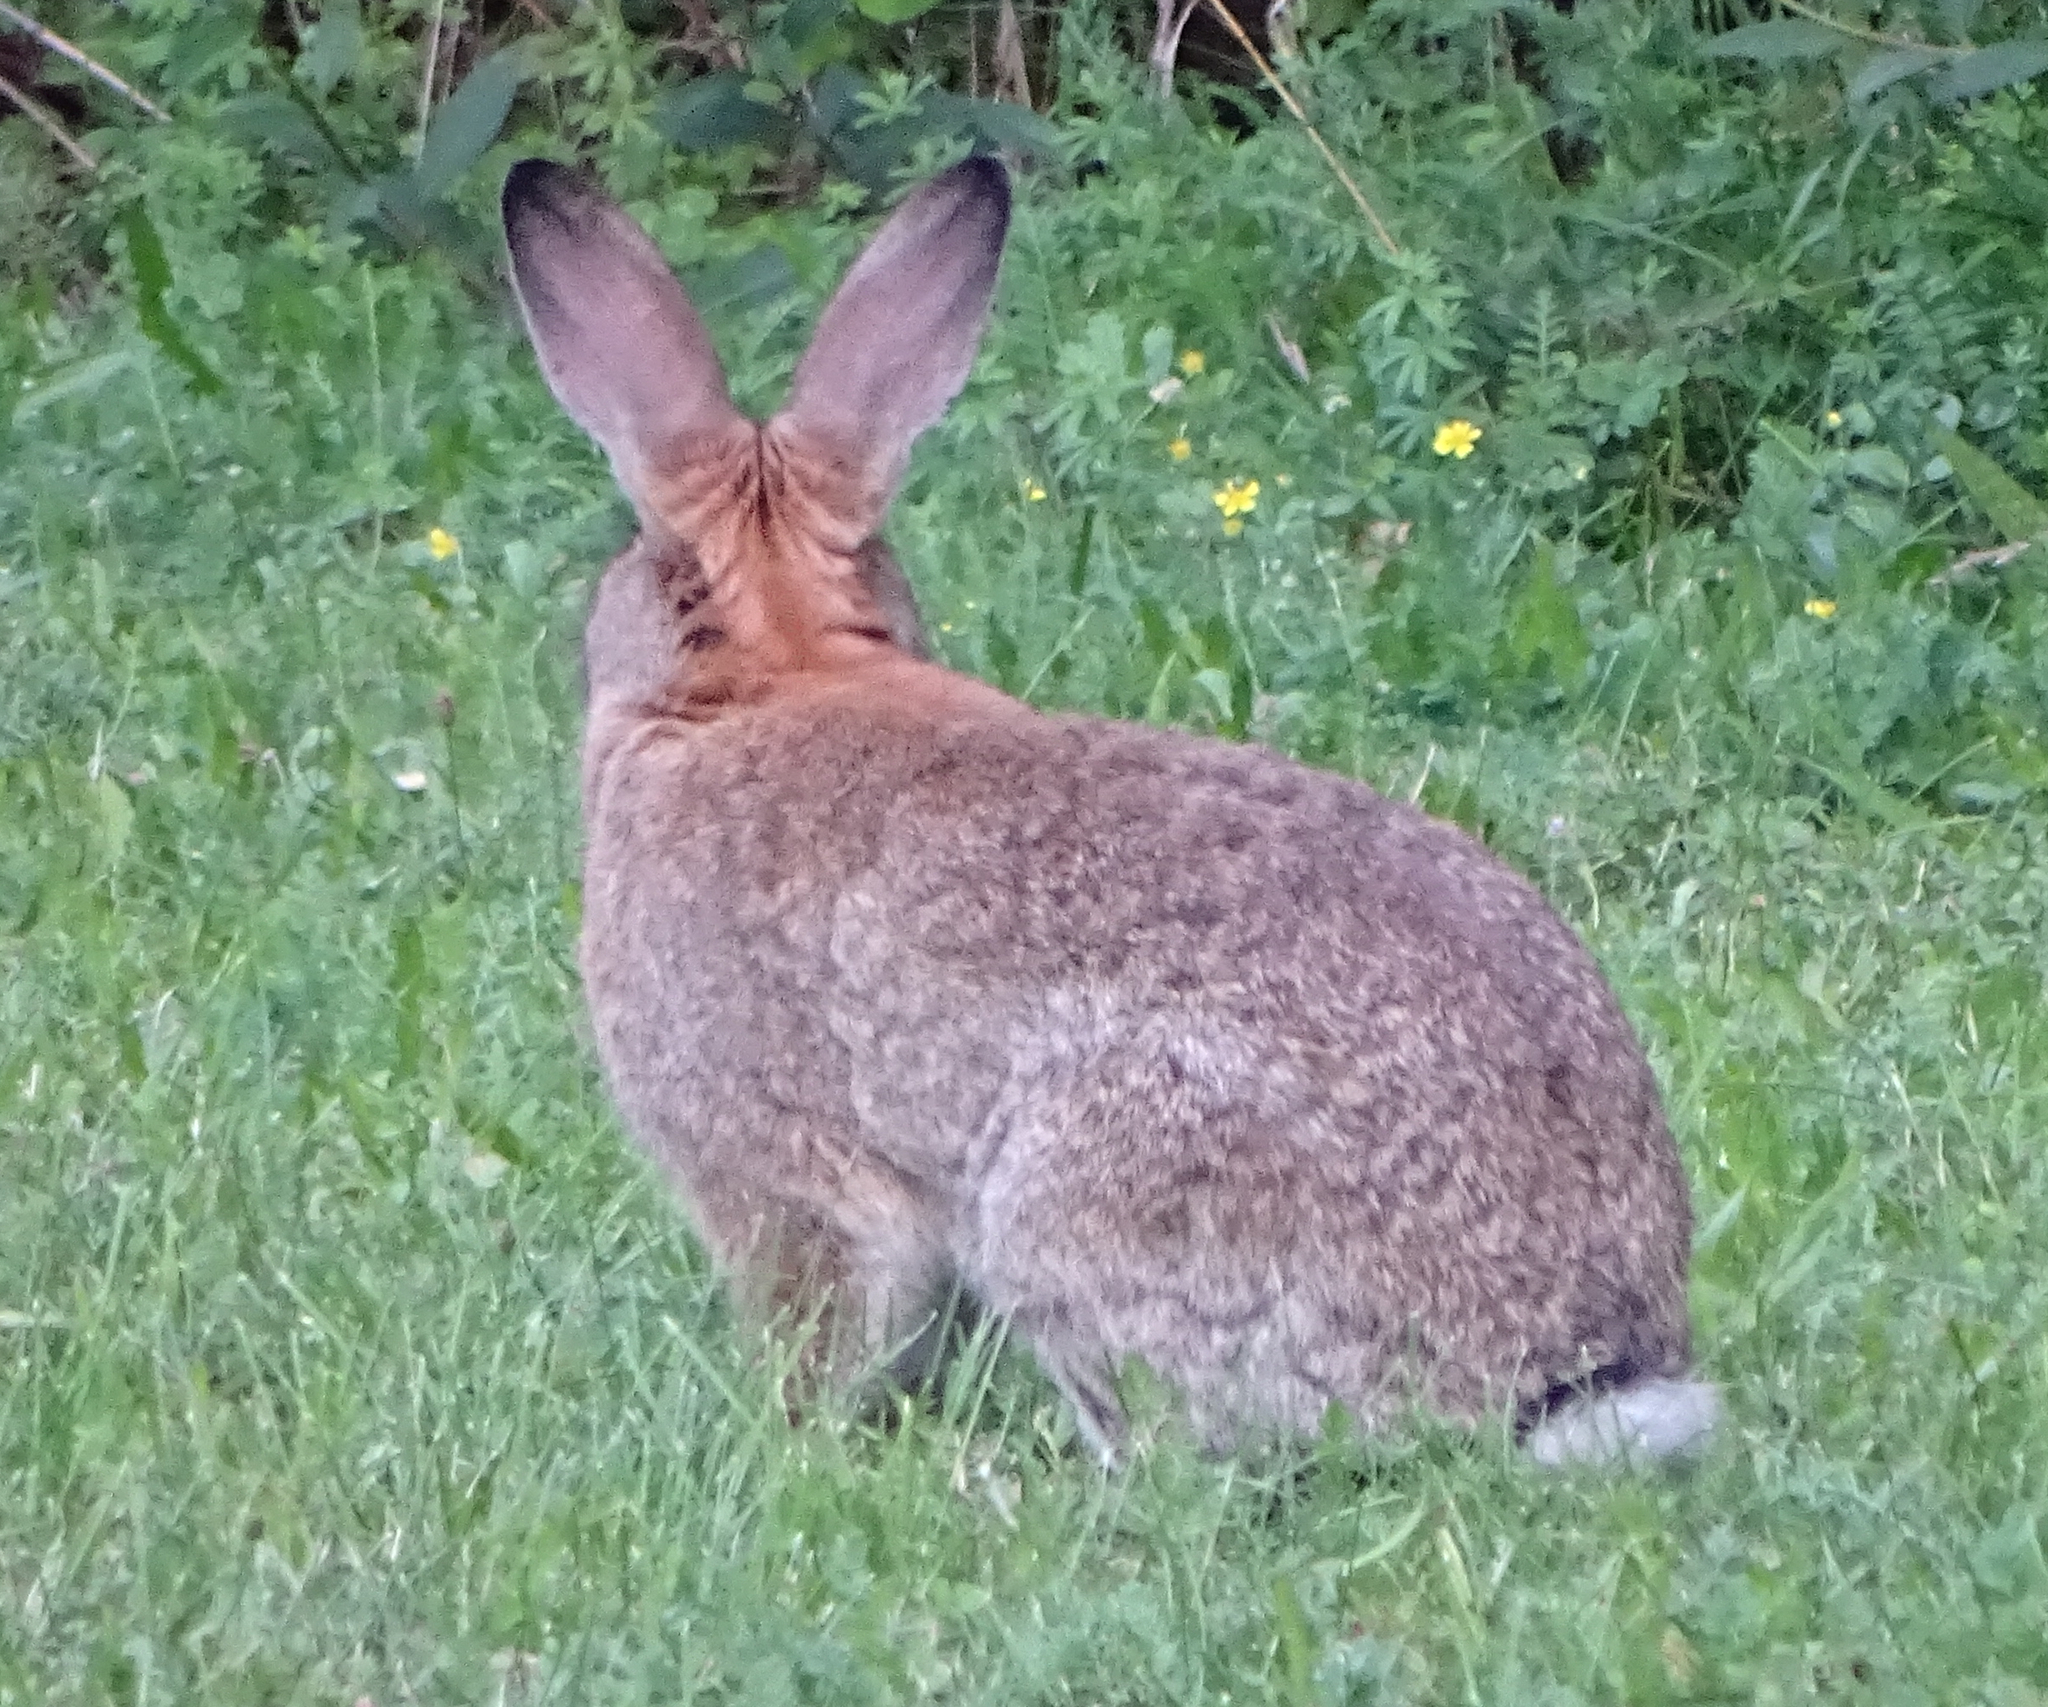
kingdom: Animalia
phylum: Chordata
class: Mammalia
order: Lagomorpha
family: Leporidae
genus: Oryctolagus
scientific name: Oryctolagus cuniculus
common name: European rabbit
